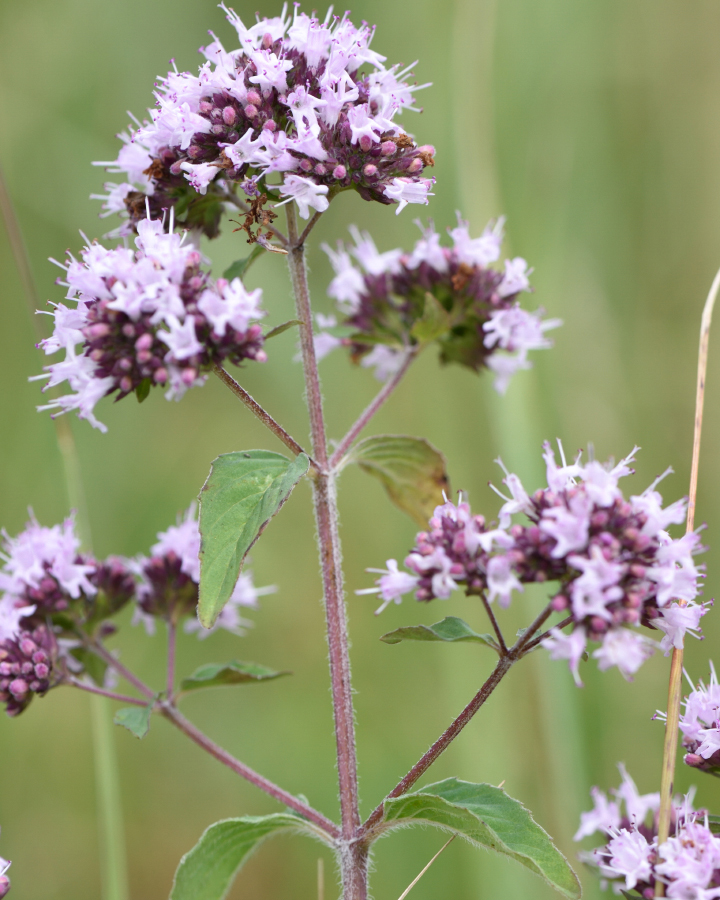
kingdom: Plantae
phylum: Tracheophyta
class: Magnoliopsida
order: Lamiales
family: Lamiaceae
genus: Origanum
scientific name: Origanum vulgare
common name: Wild marjoram
